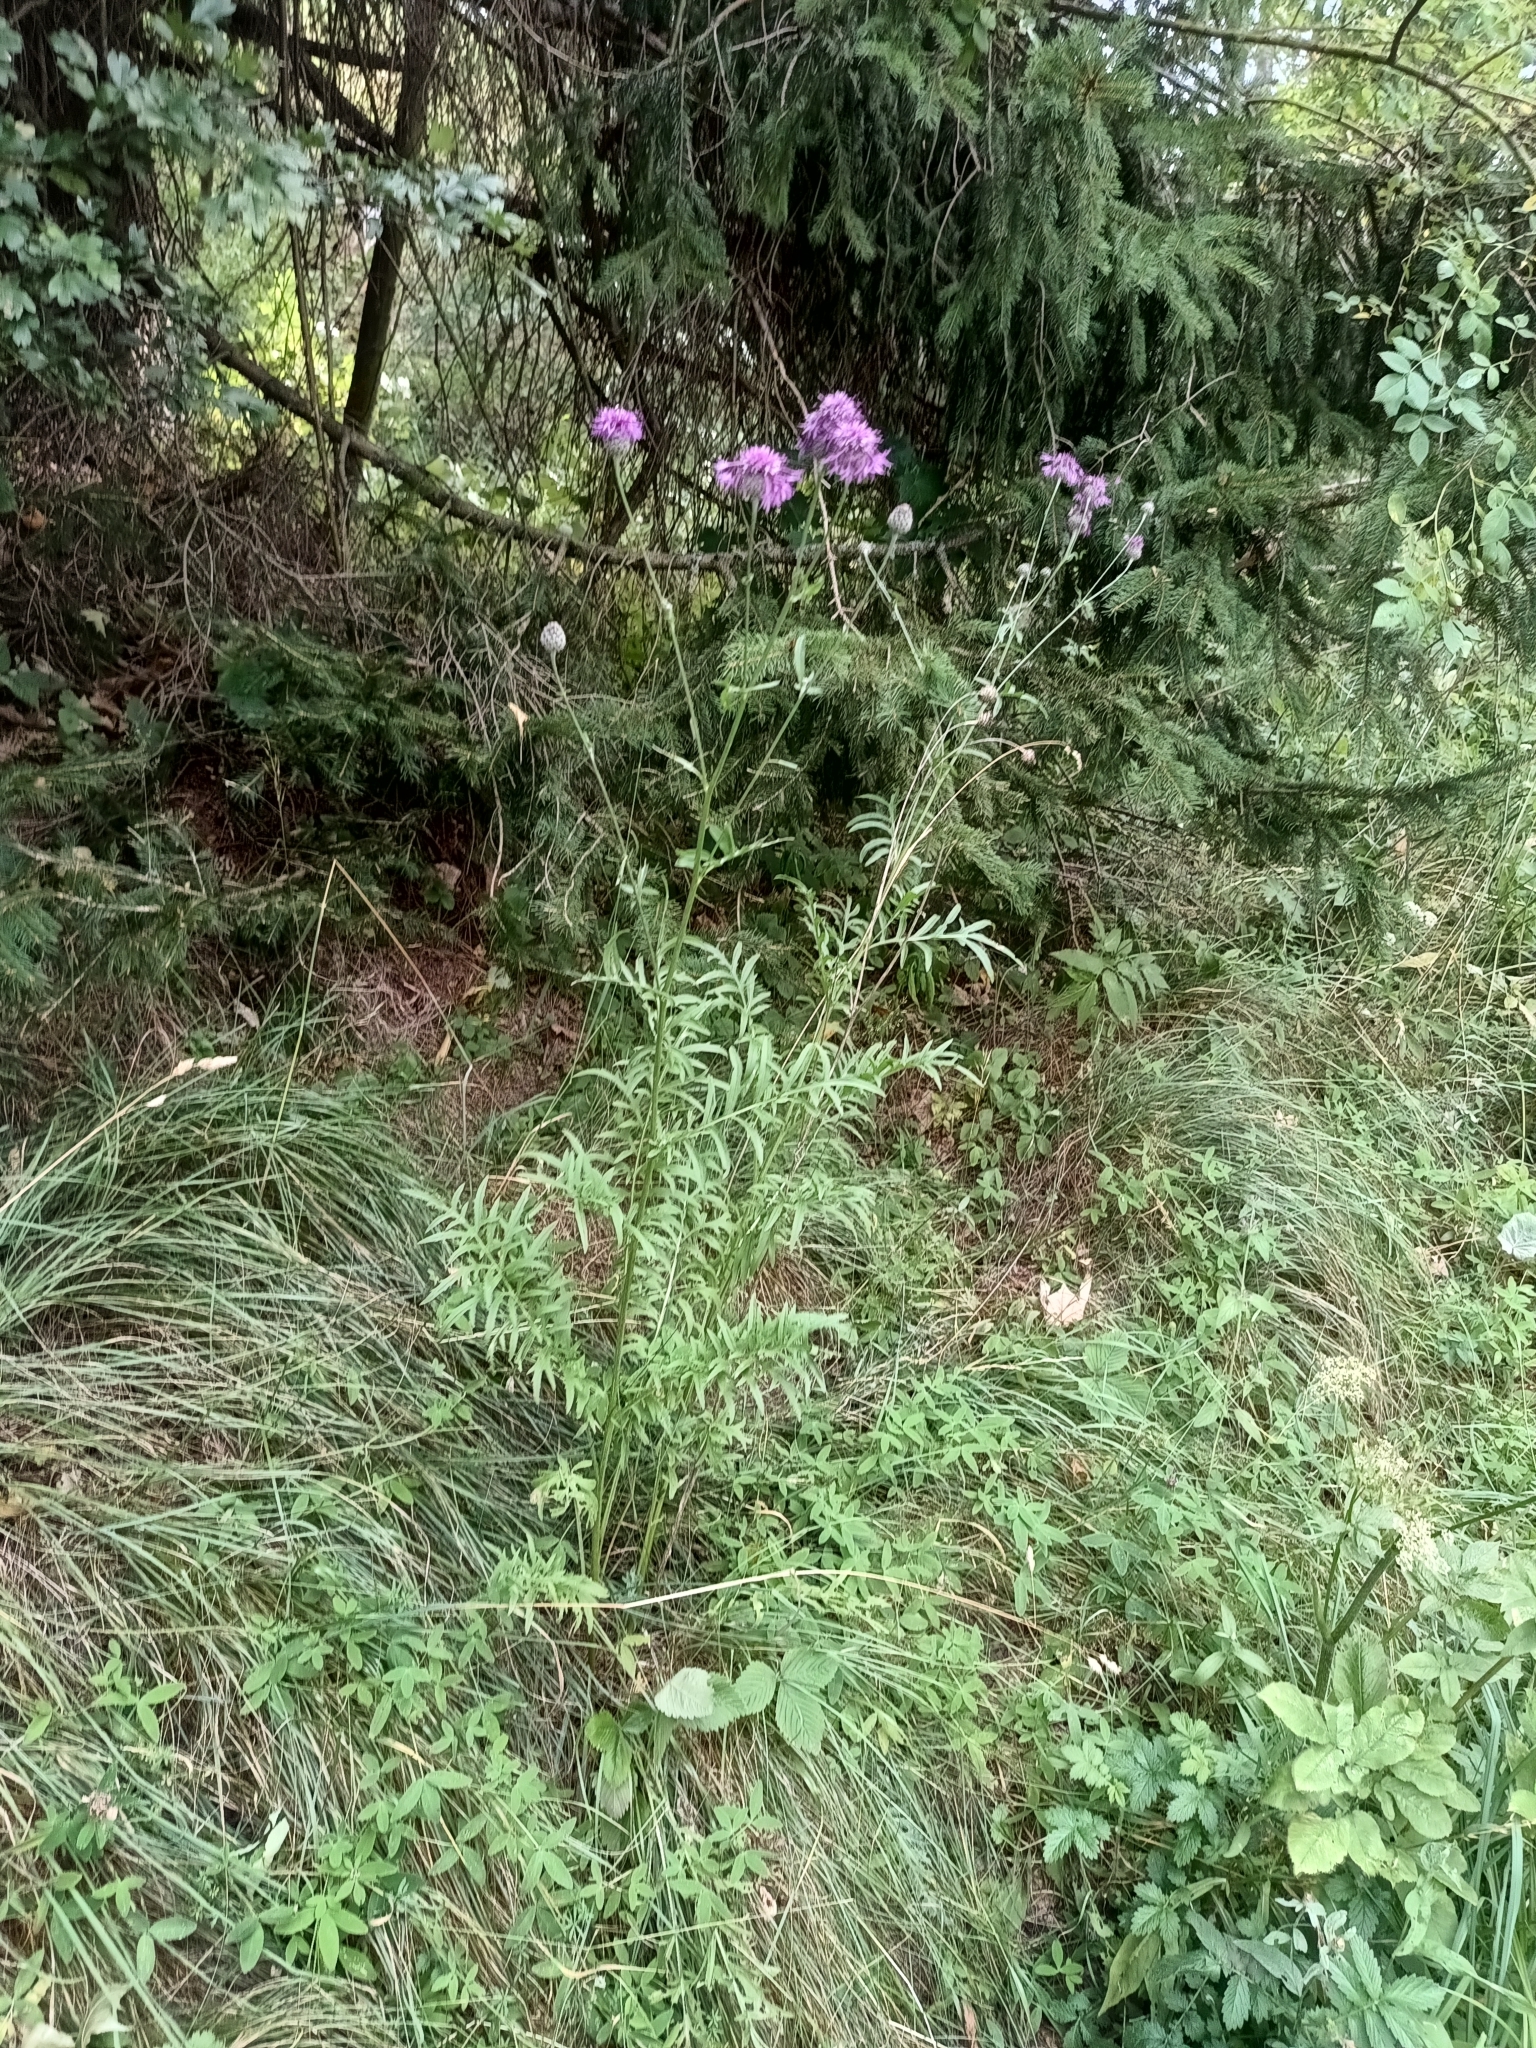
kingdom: Plantae
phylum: Tracheophyta
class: Magnoliopsida
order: Asterales
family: Asteraceae
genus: Centaurea
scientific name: Centaurea scabiosa
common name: Greater knapweed
